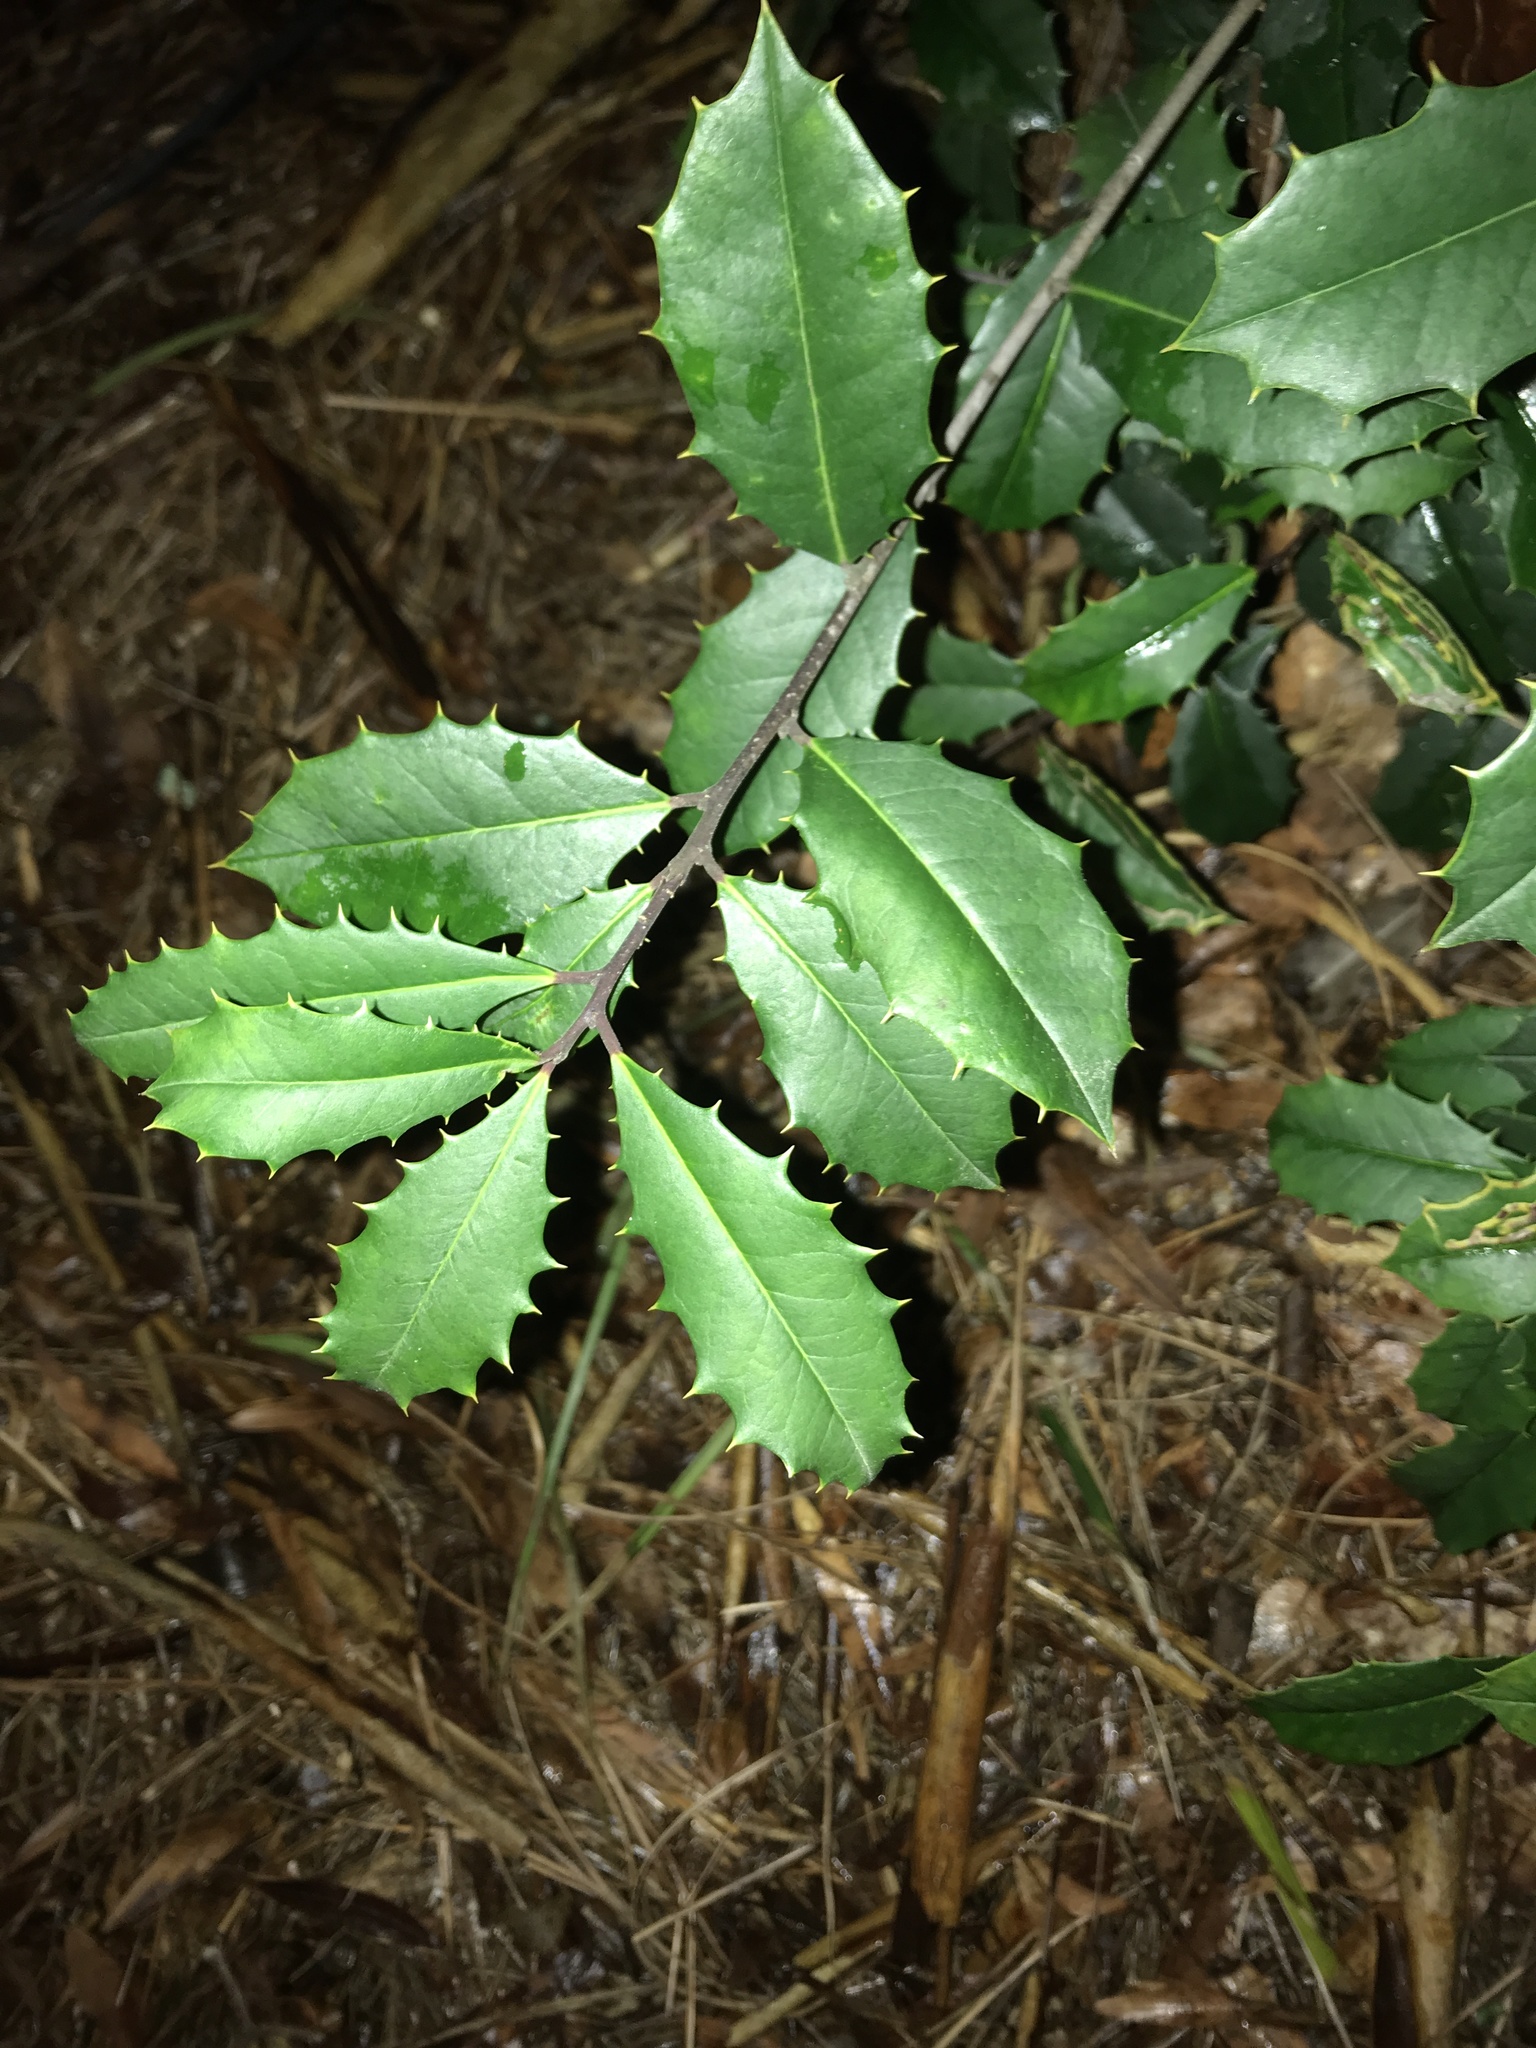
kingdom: Plantae
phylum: Tracheophyta
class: Magnoliopsida
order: Aquifoliales
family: Aquifoliaceae
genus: Ilex
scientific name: Ilex opaca
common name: American holly
